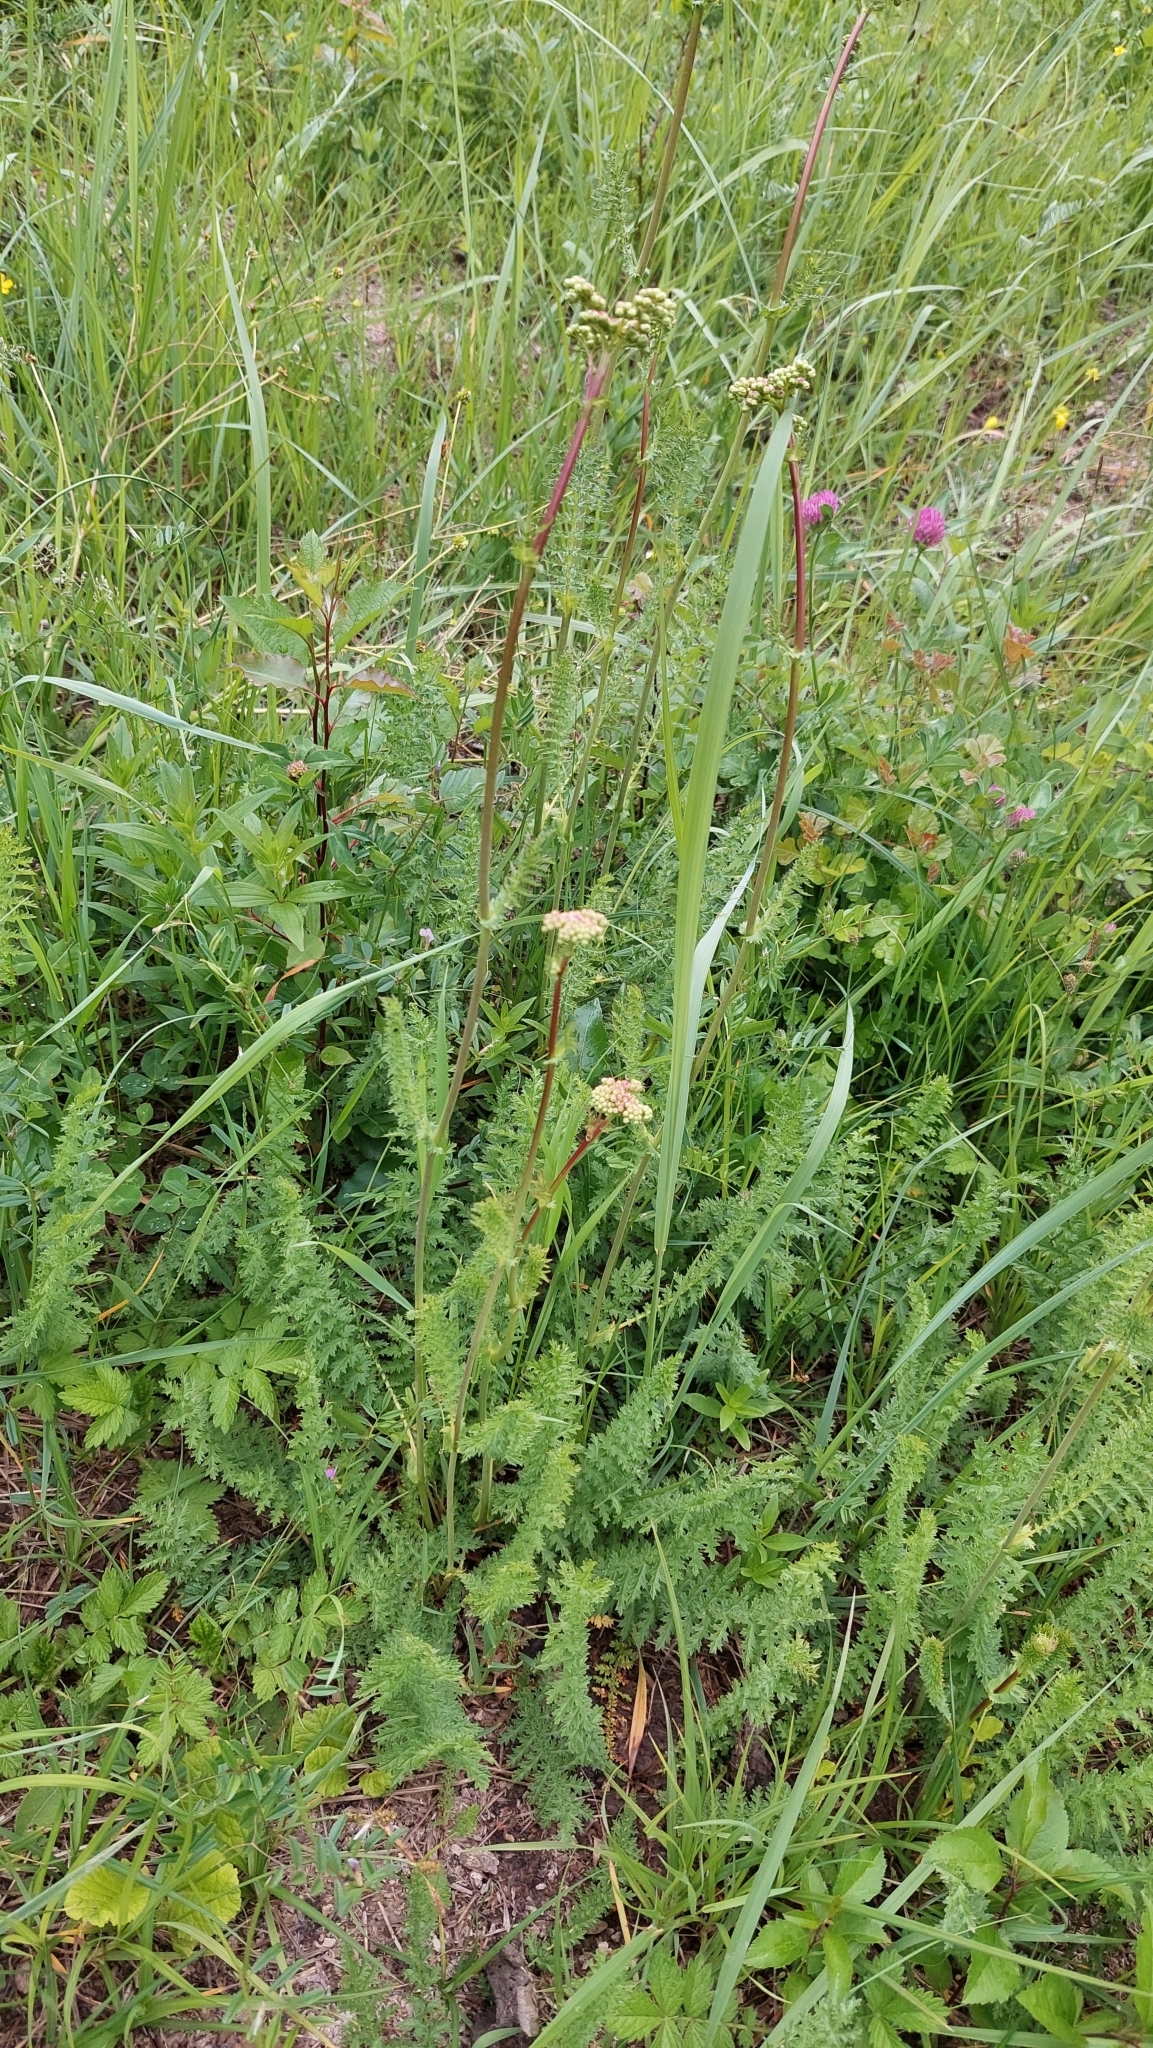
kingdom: Plantae
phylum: Tracheophyta
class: Magnoliopsida
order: Rosales
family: Rosaceae
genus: Filipendula
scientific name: Filipendula vulgaris
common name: Dropwort
